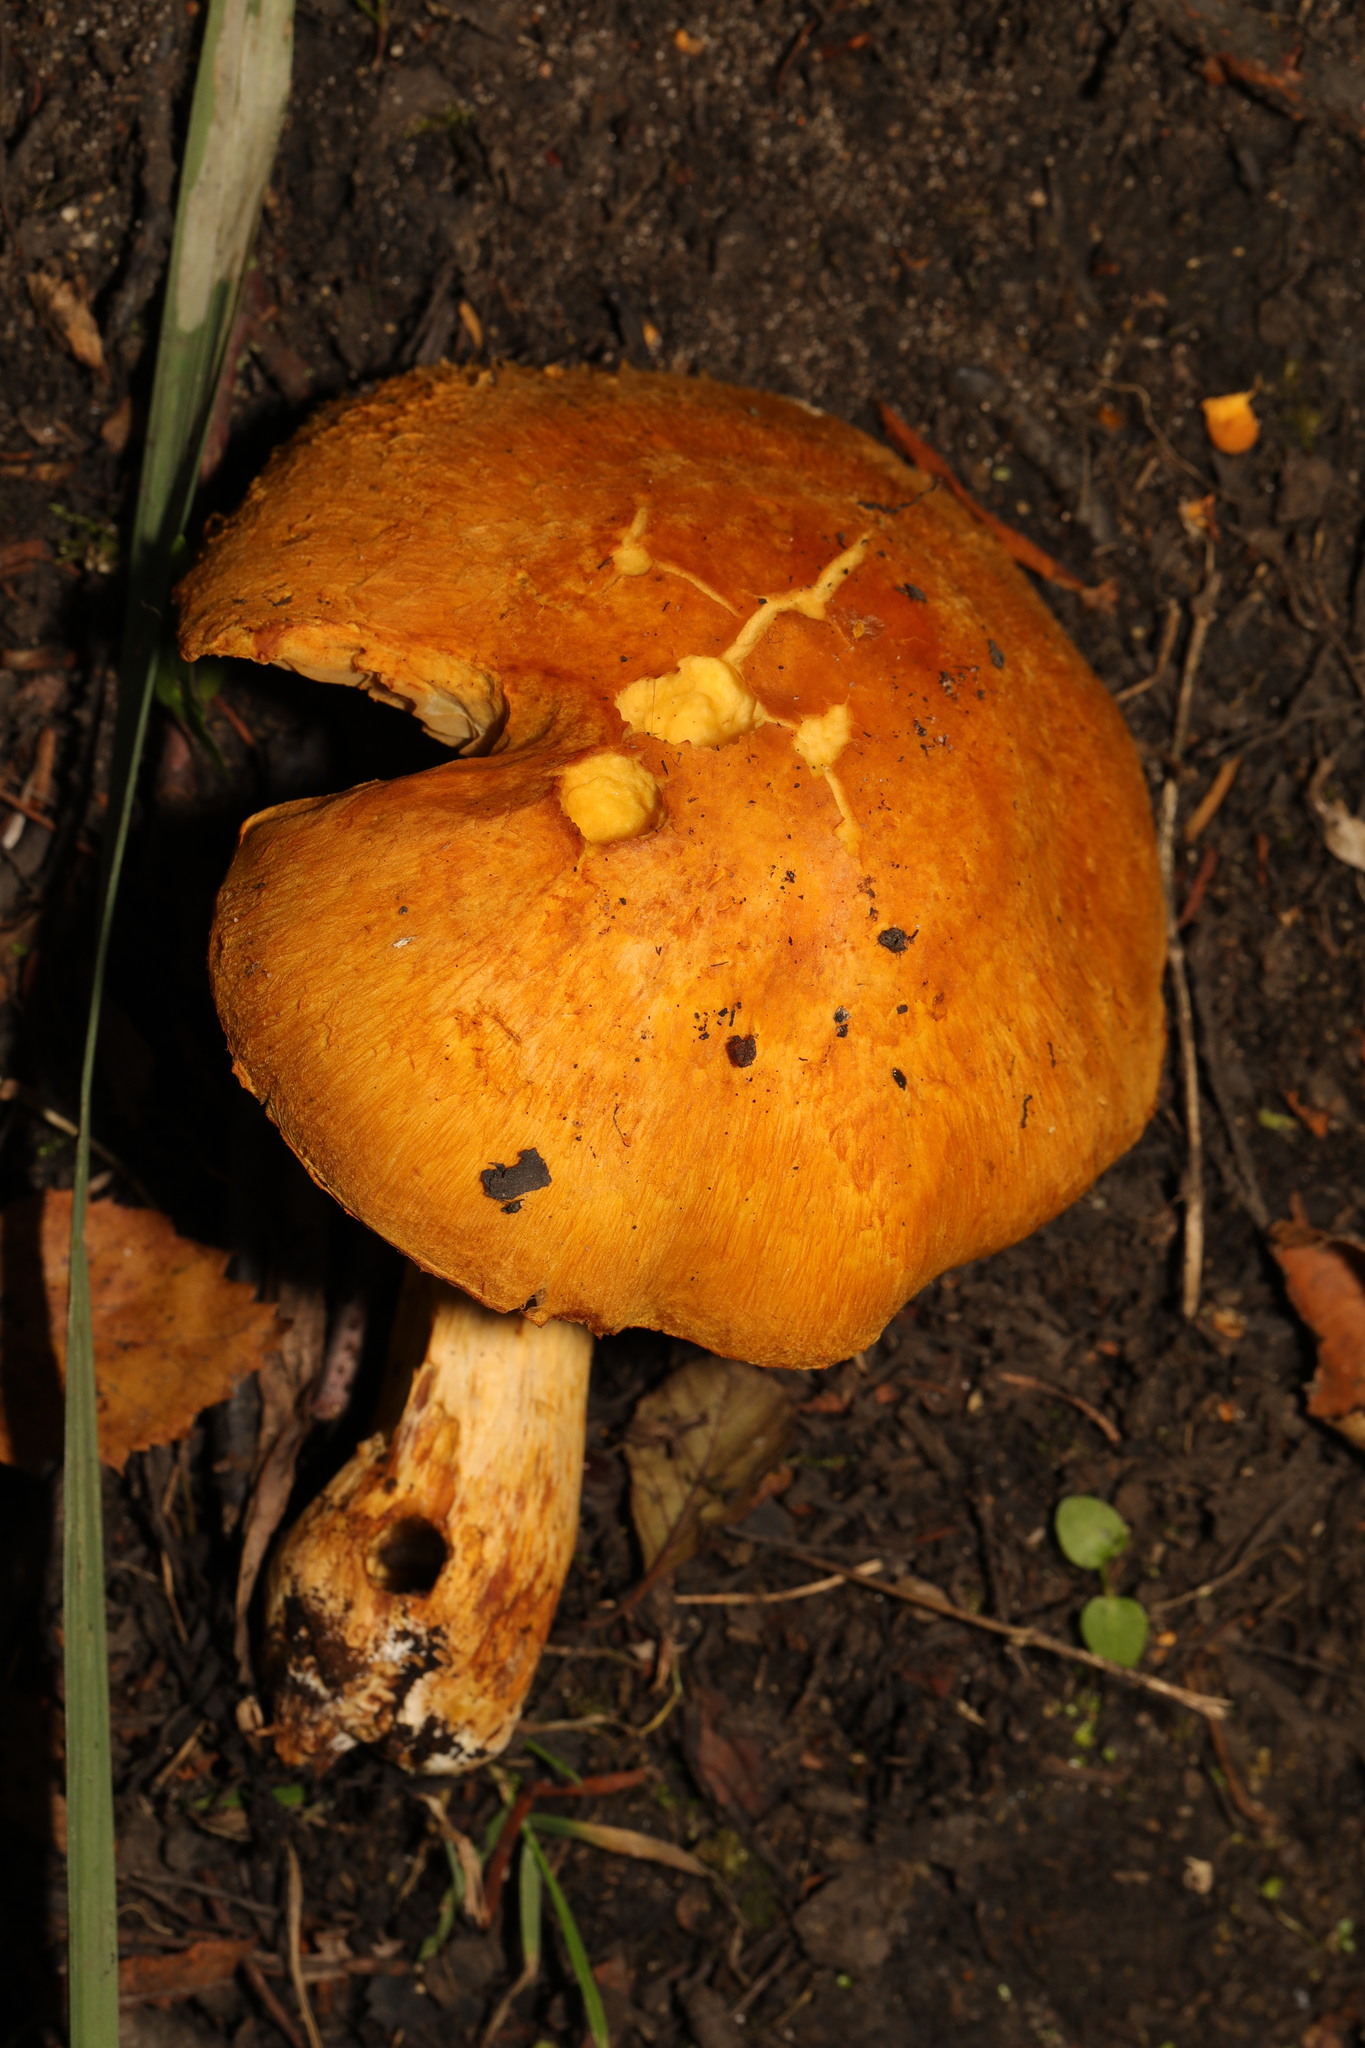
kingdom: Fungi
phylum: Basidiomycota
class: Agaricomycetes
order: Agaricales
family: Hymenogastraceae
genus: Gymnopilus
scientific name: Gymnopilus junonius
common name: Spectacular rustgill
